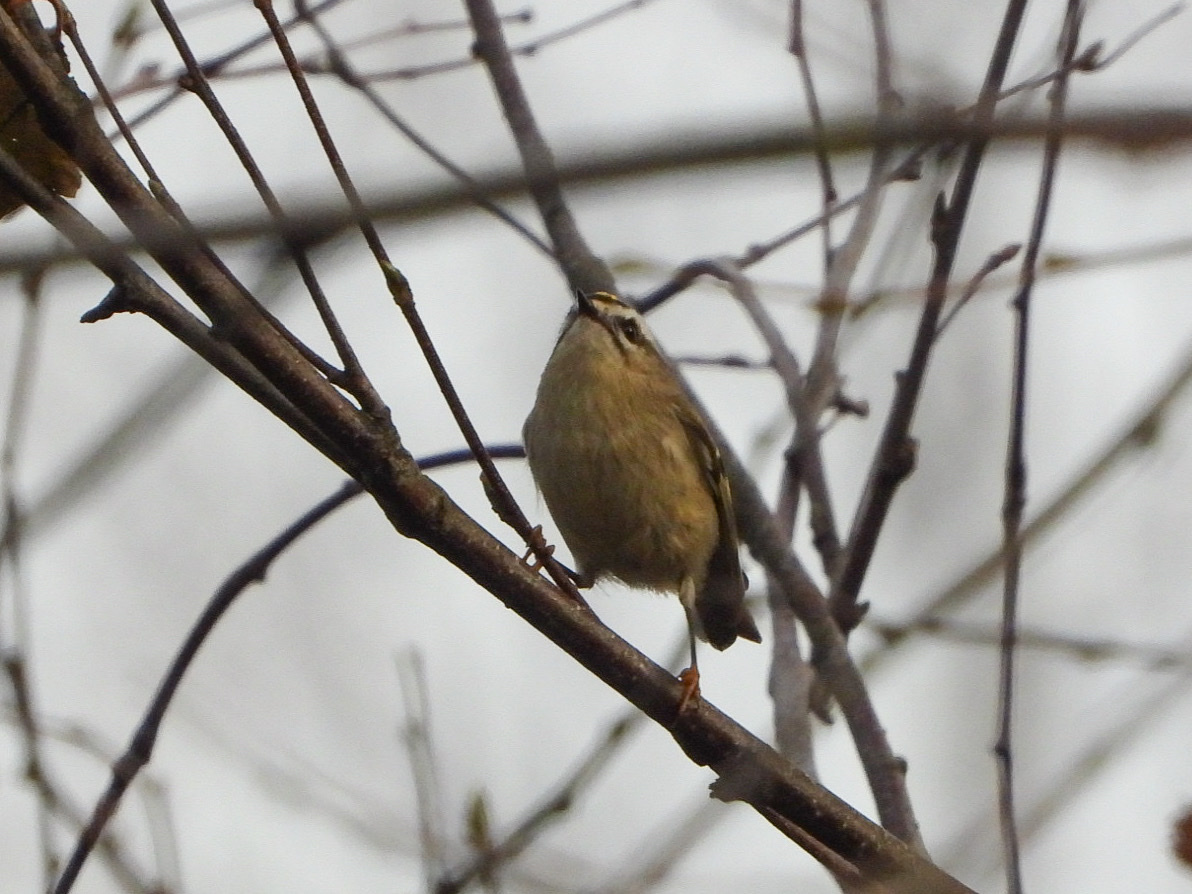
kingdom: Animalia
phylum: Chordata
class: Aves
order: Passeriformes
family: Regulidae
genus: Regulus
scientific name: Regulus satrapa
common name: Golden-crowned kinglet
